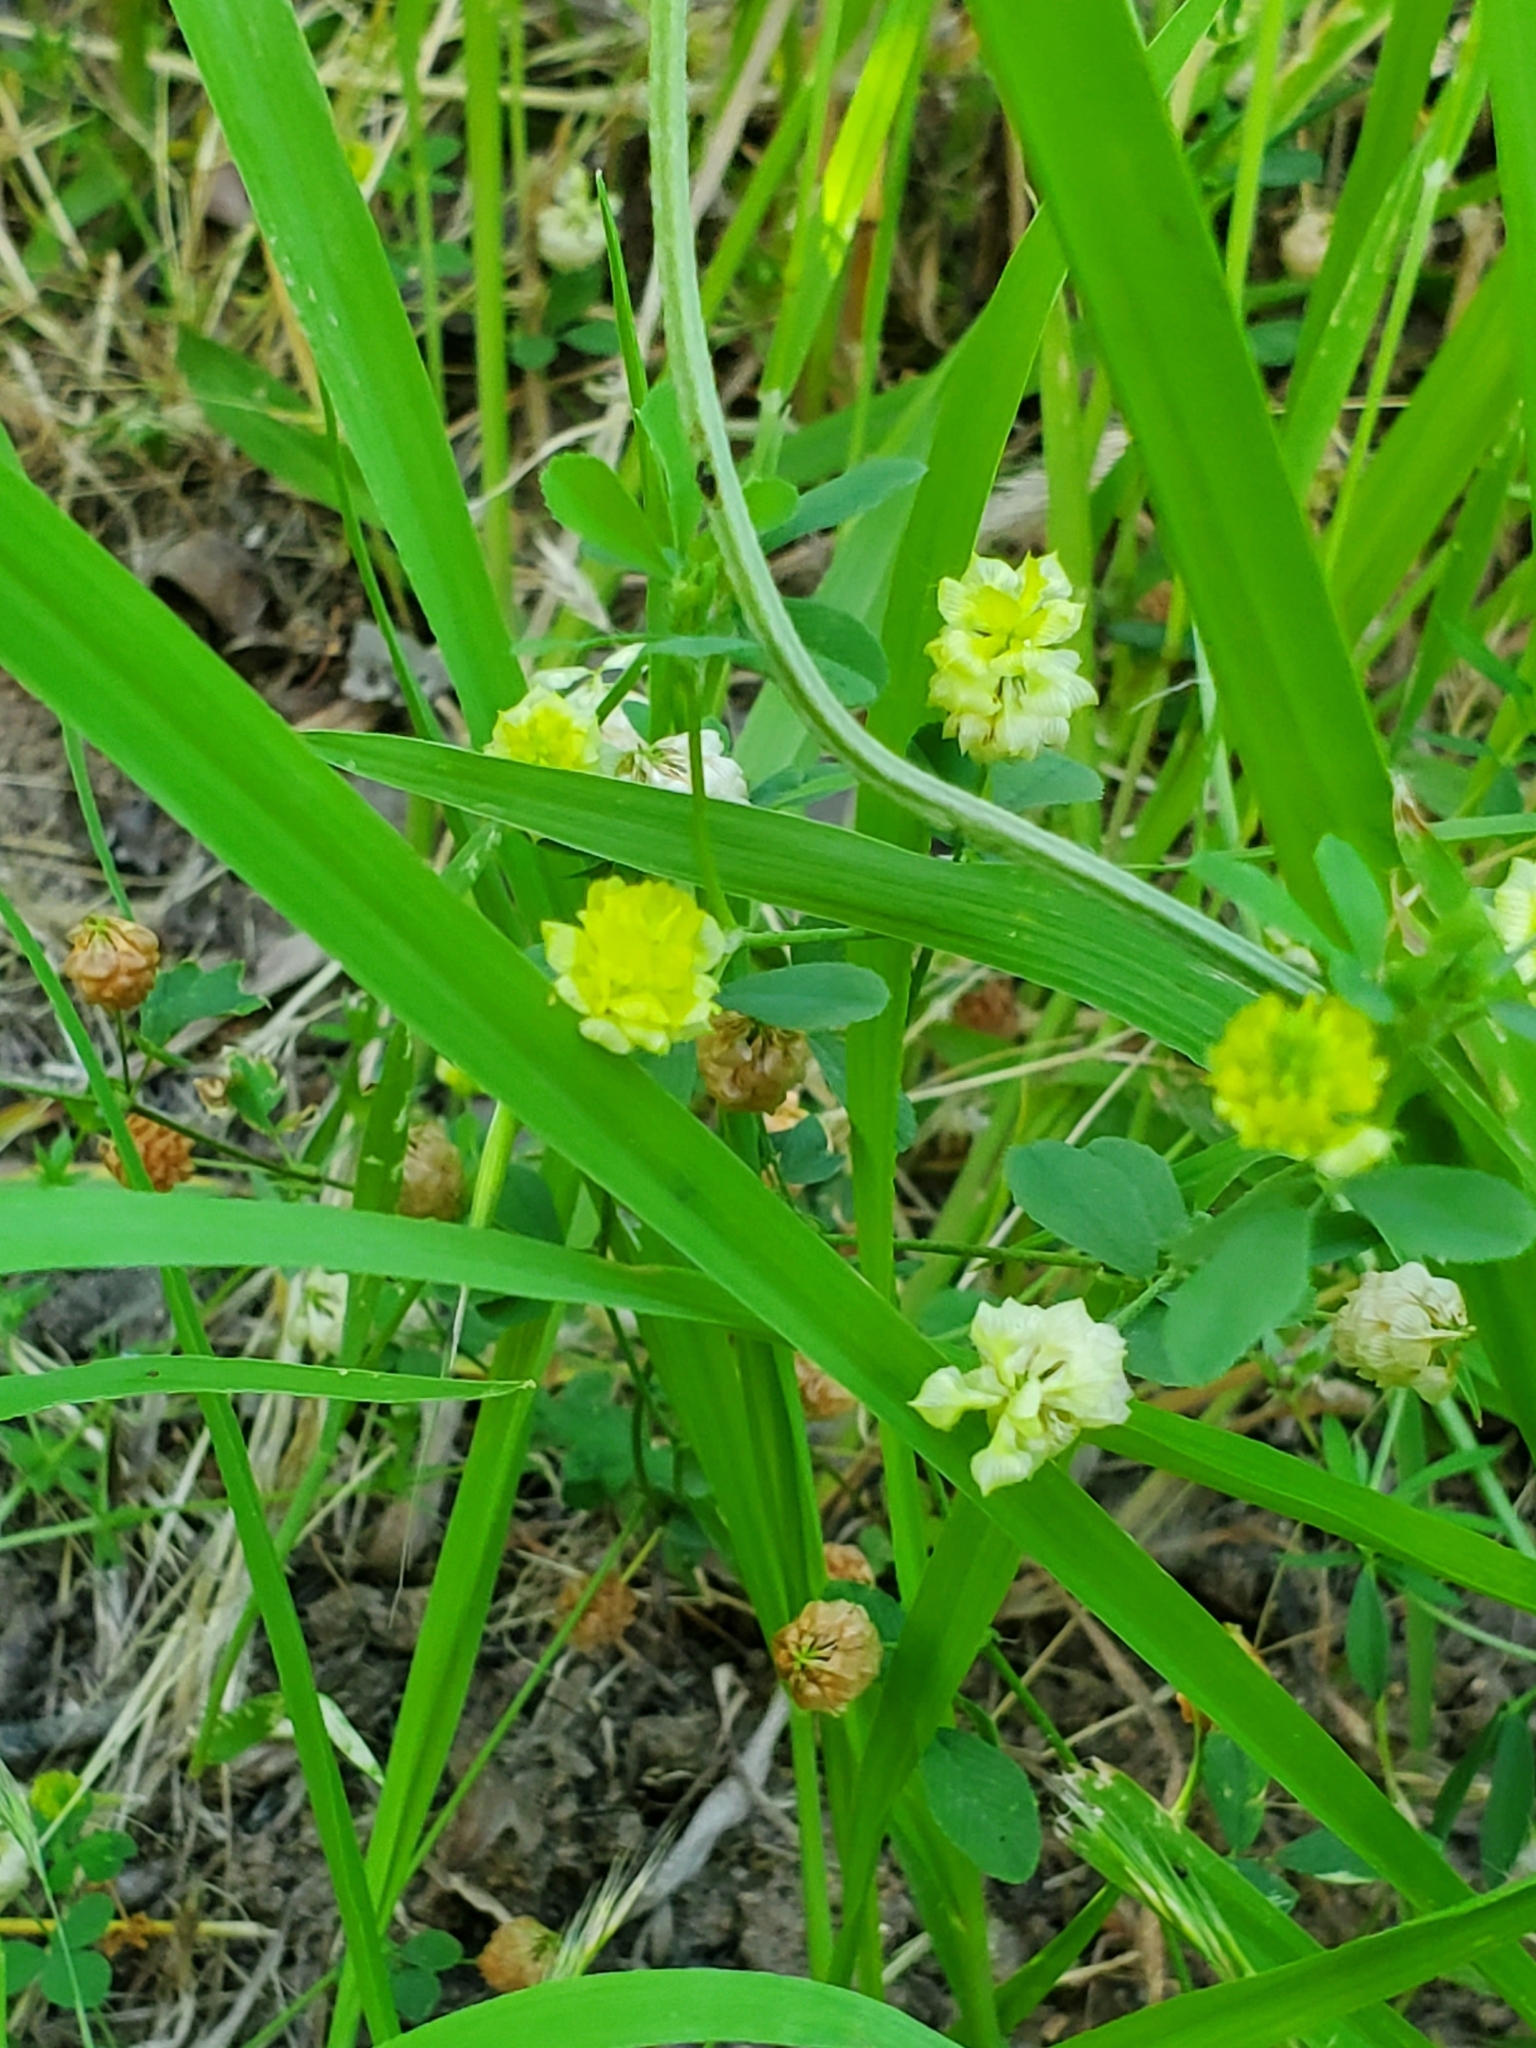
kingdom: Plantae
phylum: Tracheophyta
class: Magnoliopsida
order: Fabales
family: Fabaceae
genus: Trifolium
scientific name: Trifolium campestre
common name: Field clover
